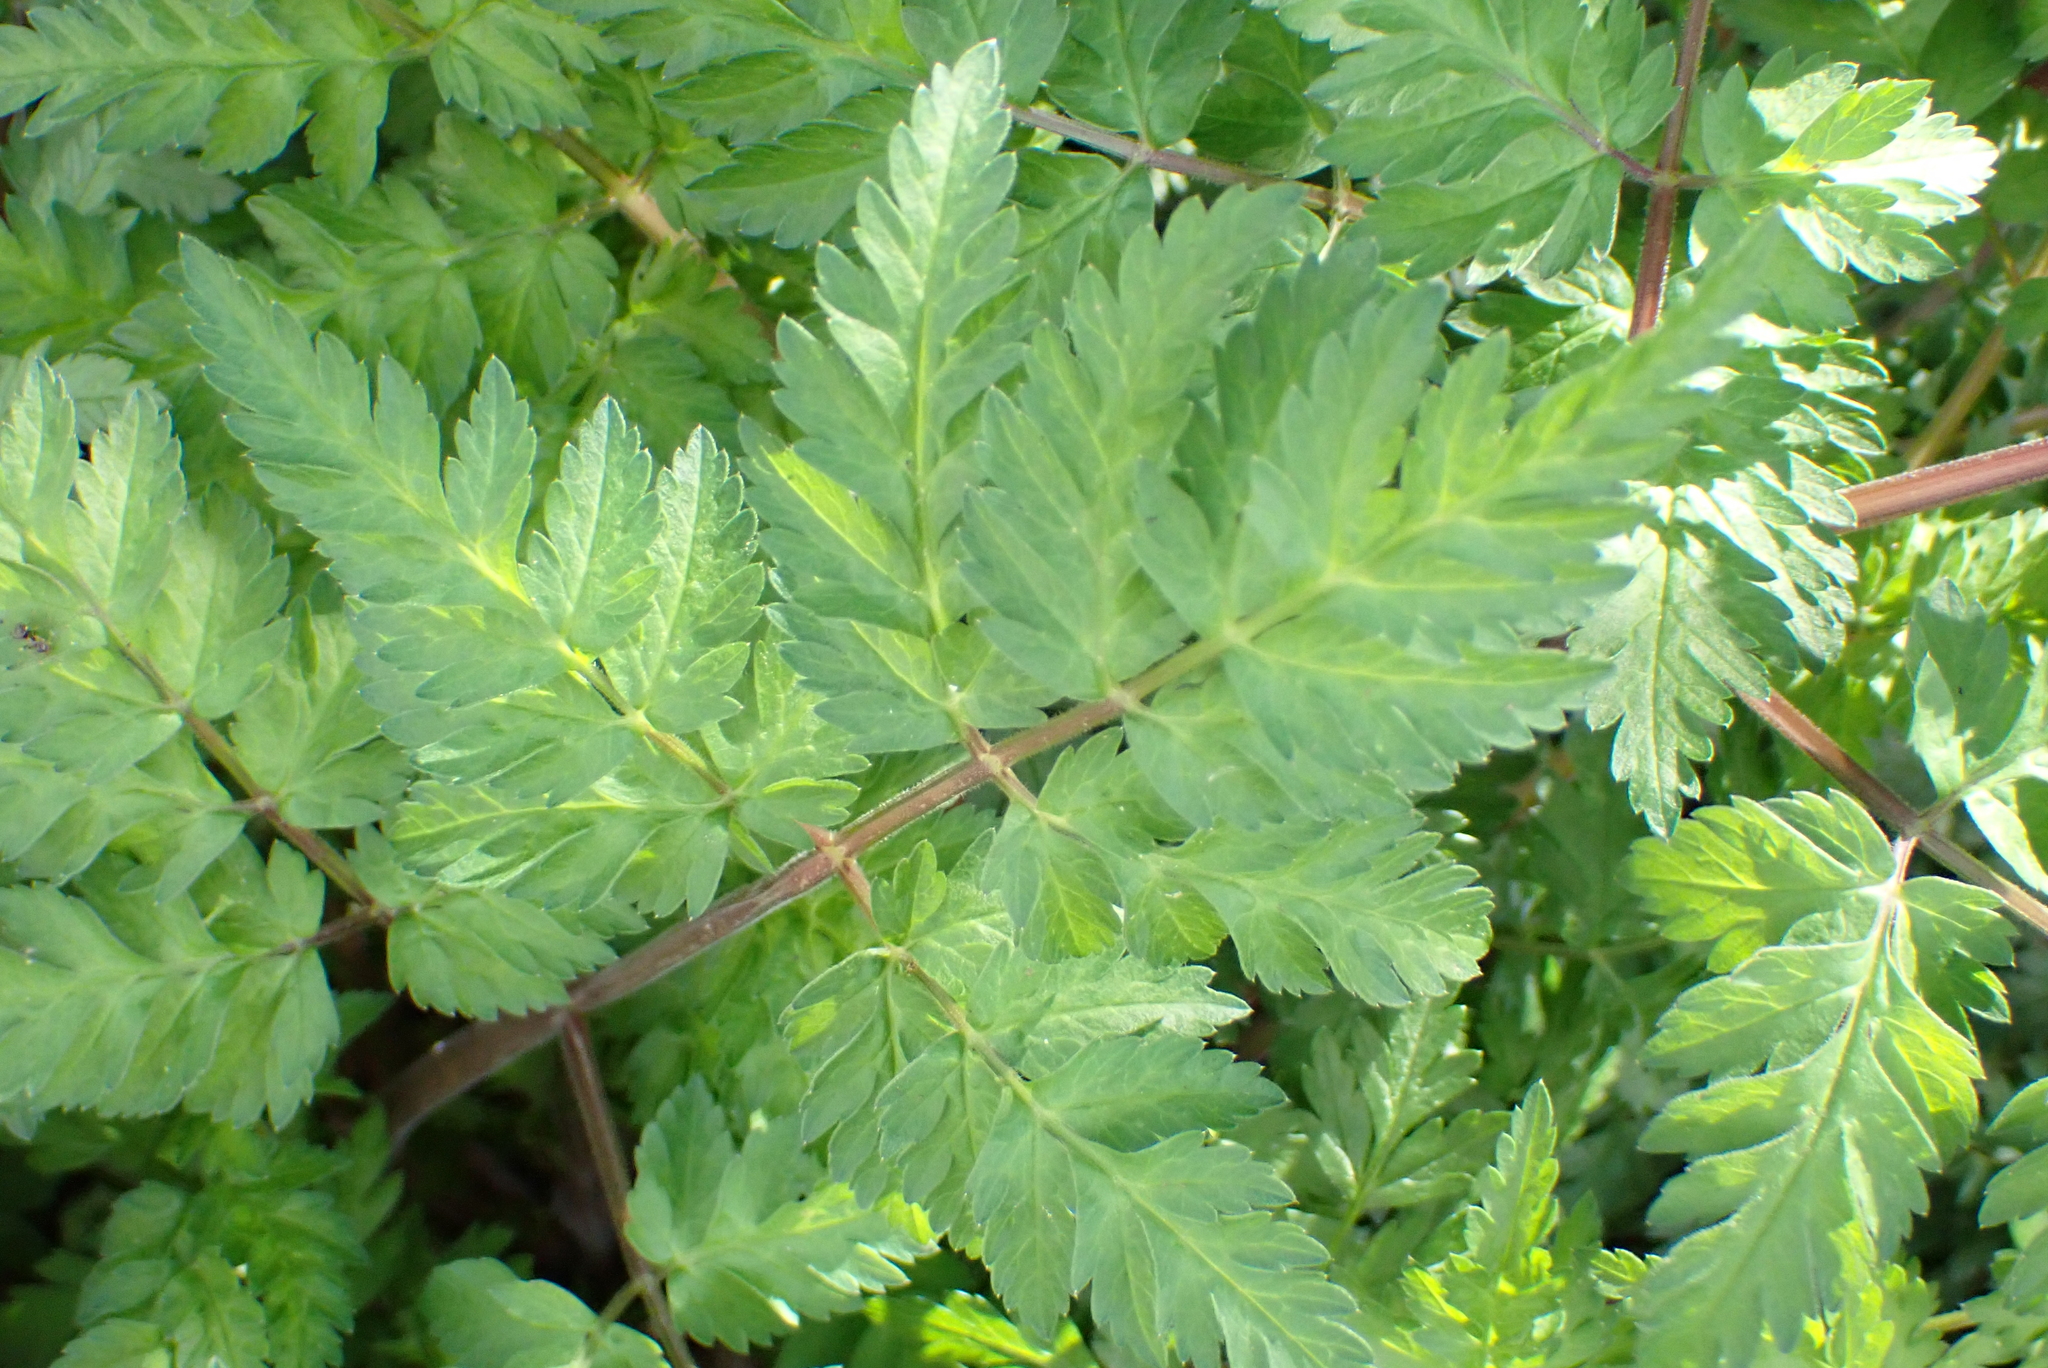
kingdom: Plantae
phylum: Tracheophyta
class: Magnoliopsida
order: Apiales
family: Apiaceae
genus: Anthriscus
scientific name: Anthriscus sylvestris
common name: Cow parsley
